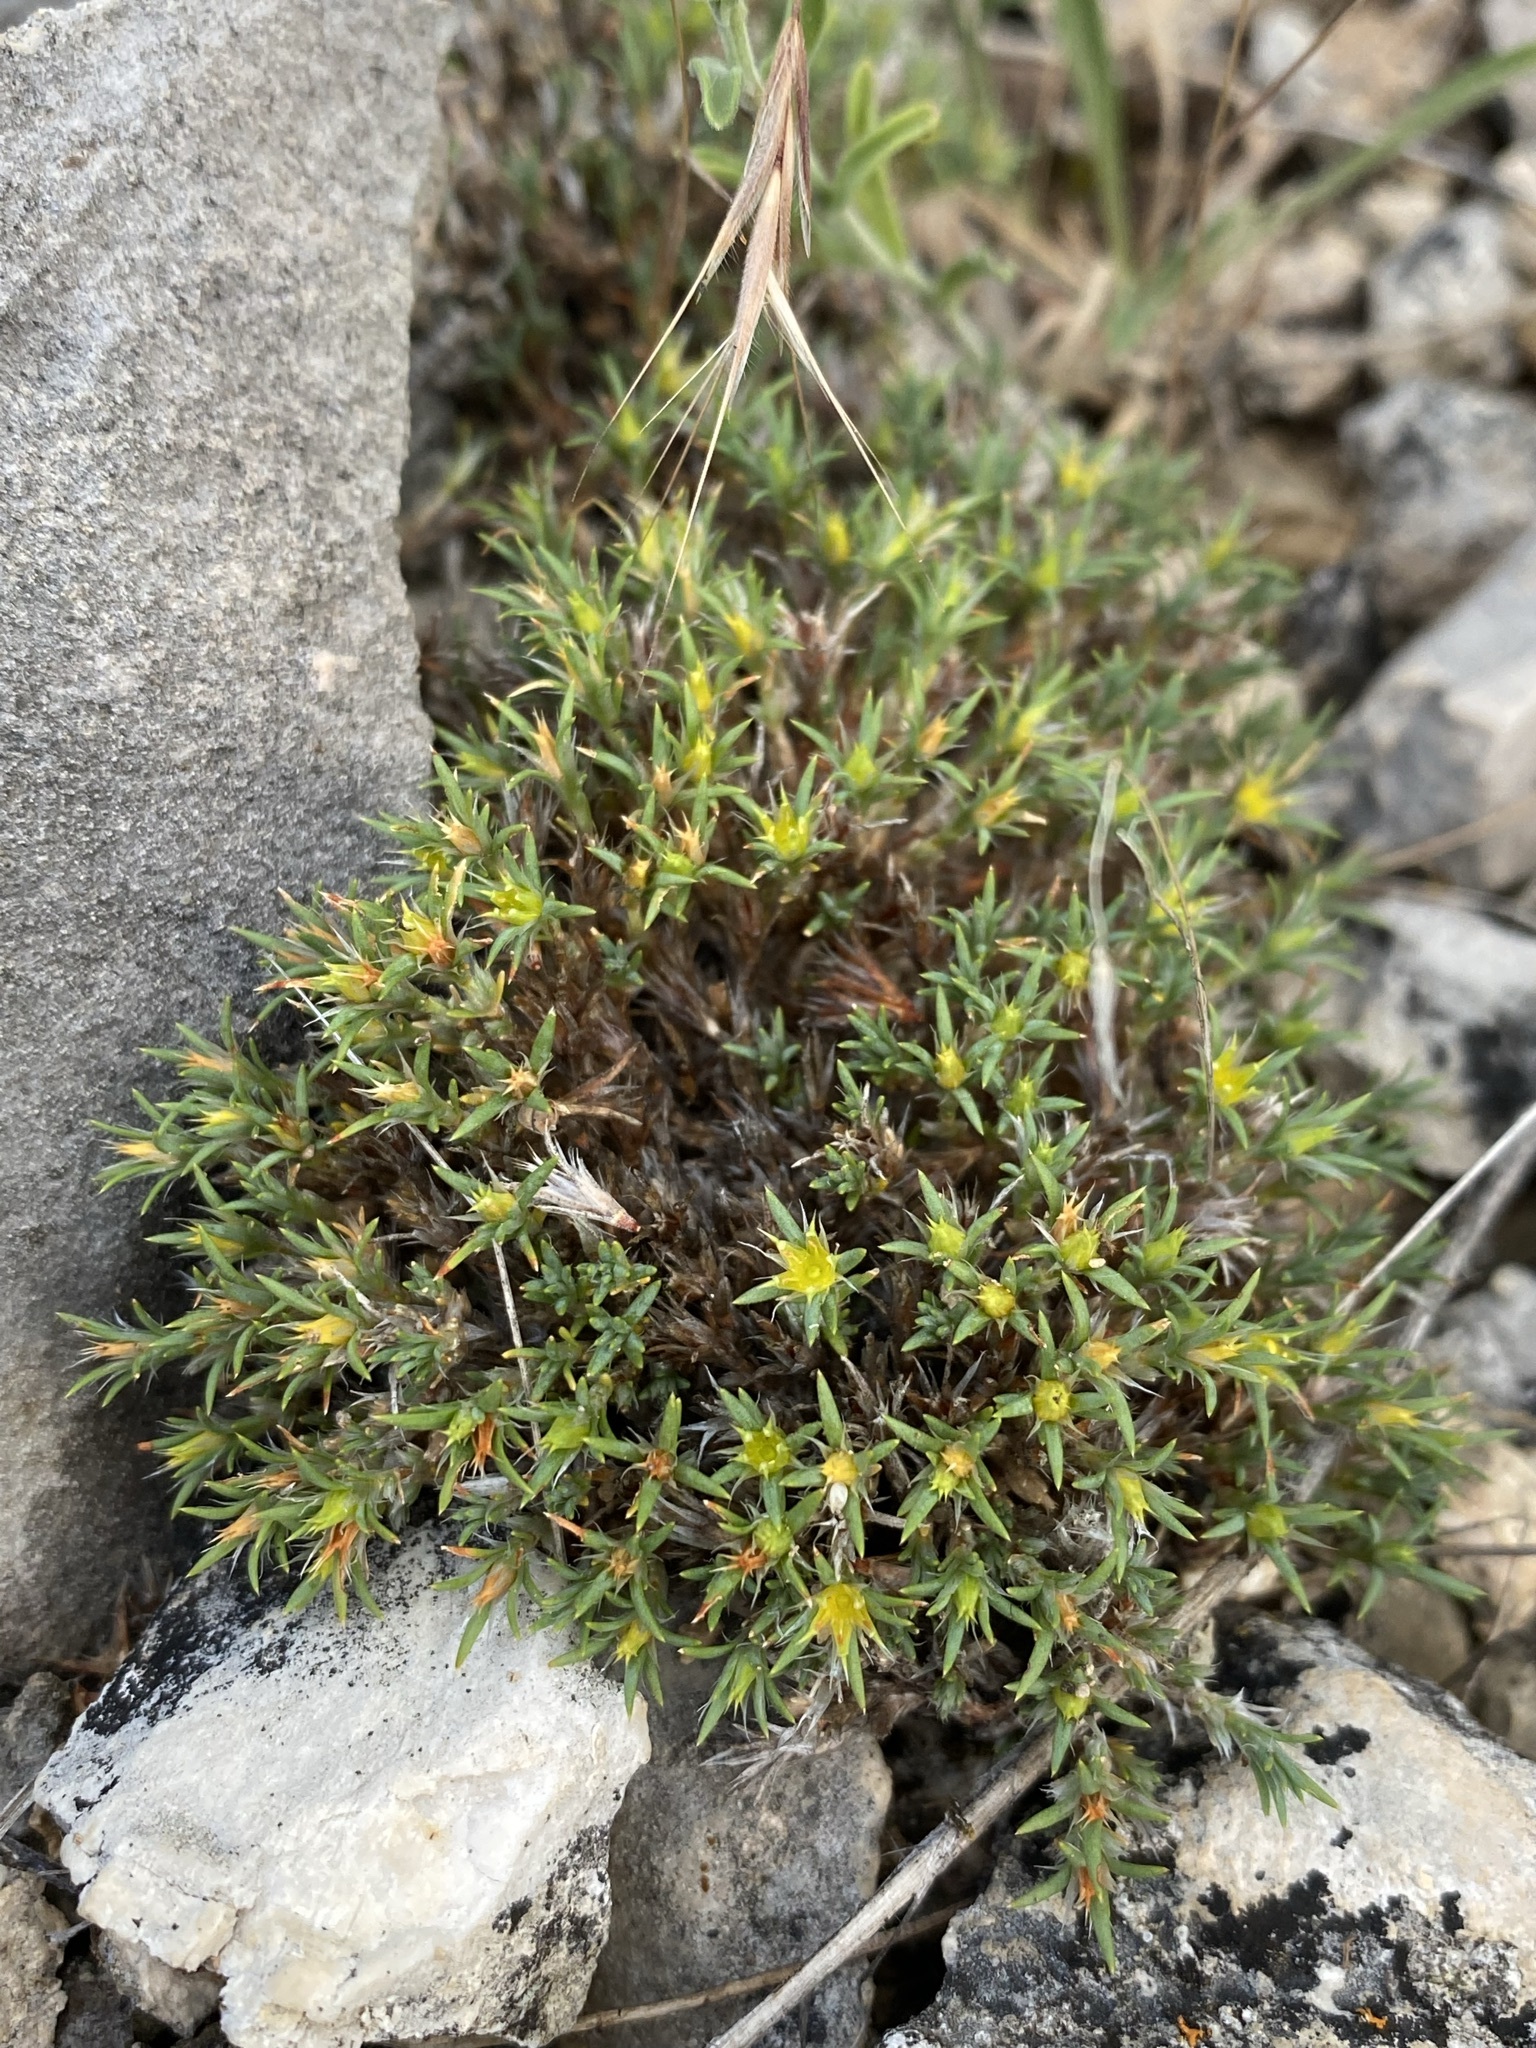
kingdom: Plantae
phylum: Tracheophyta
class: Magnoliopsida
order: Caryophyllales
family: Caryophyllaceae
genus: Paronychia
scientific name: Paronychia sessiliflora
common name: Creeping nailwort
